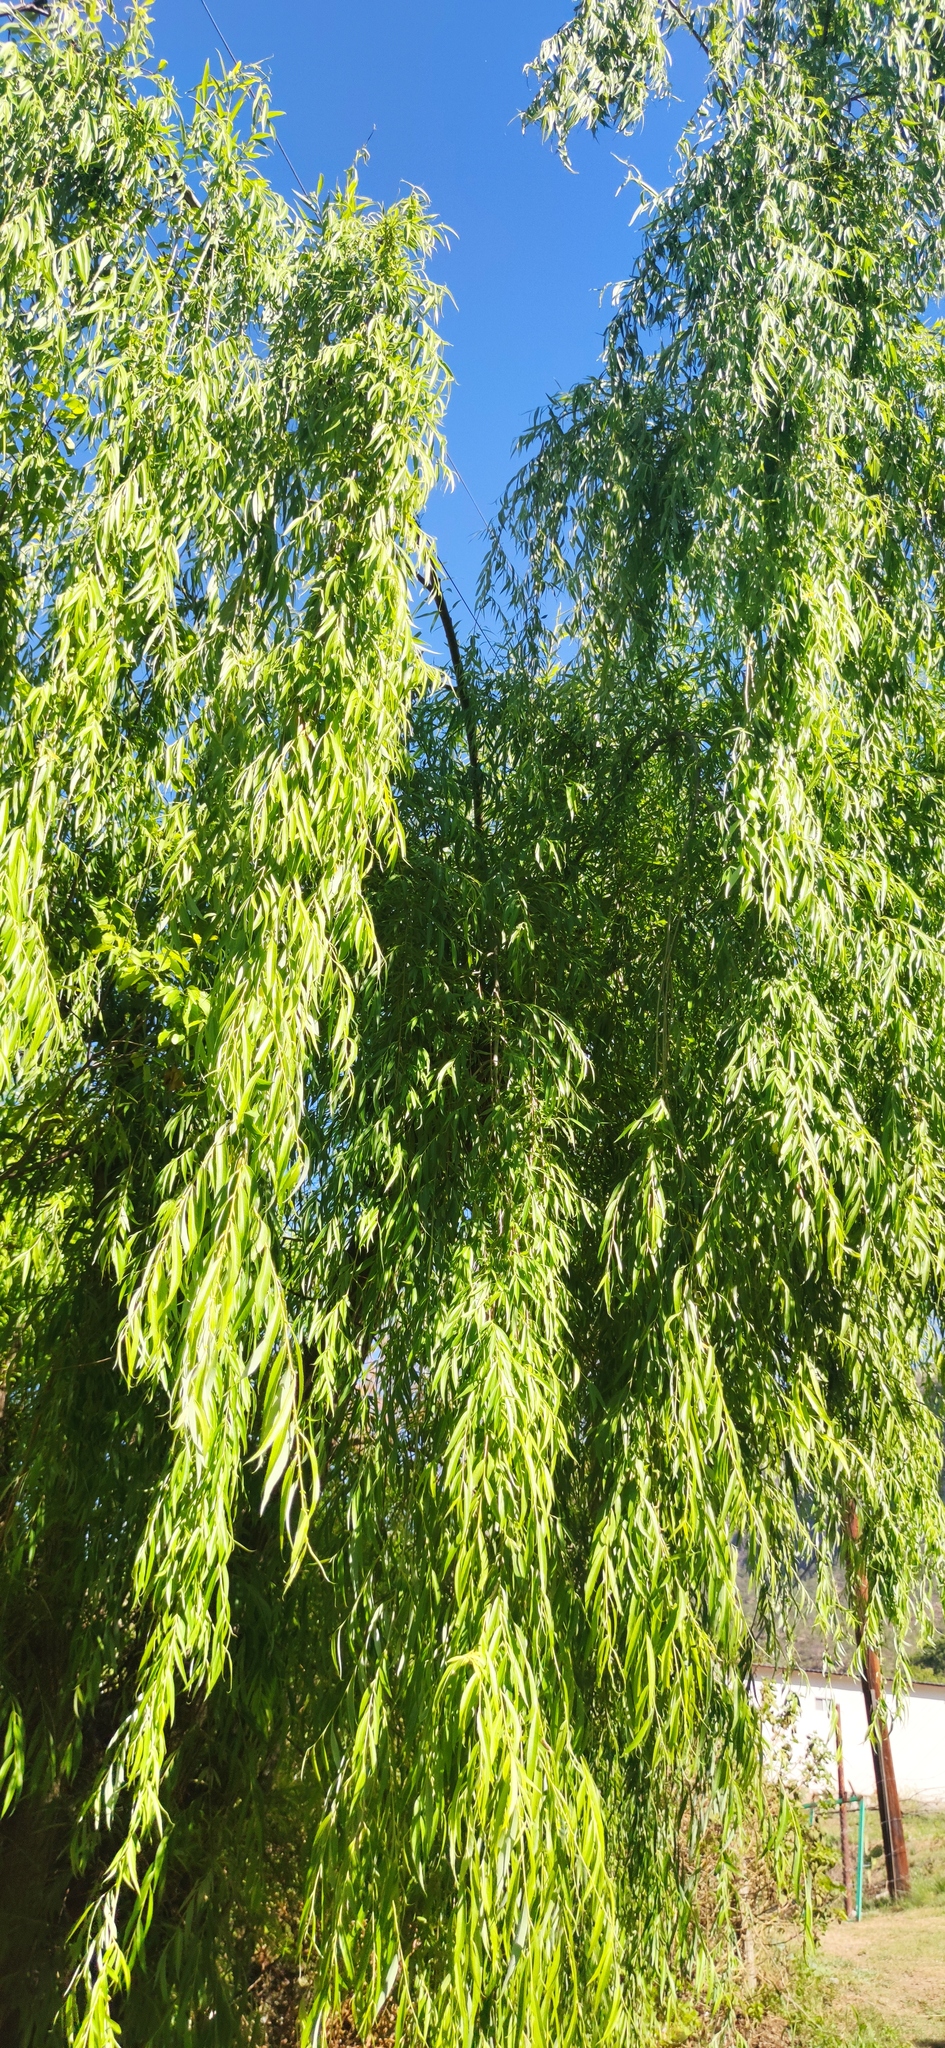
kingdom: Plantae
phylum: Tracheophyta
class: Magnoliopsida
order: Malpighiales
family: Salicaceae
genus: Salix
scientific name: Salix babylonica
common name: Weeping willow
